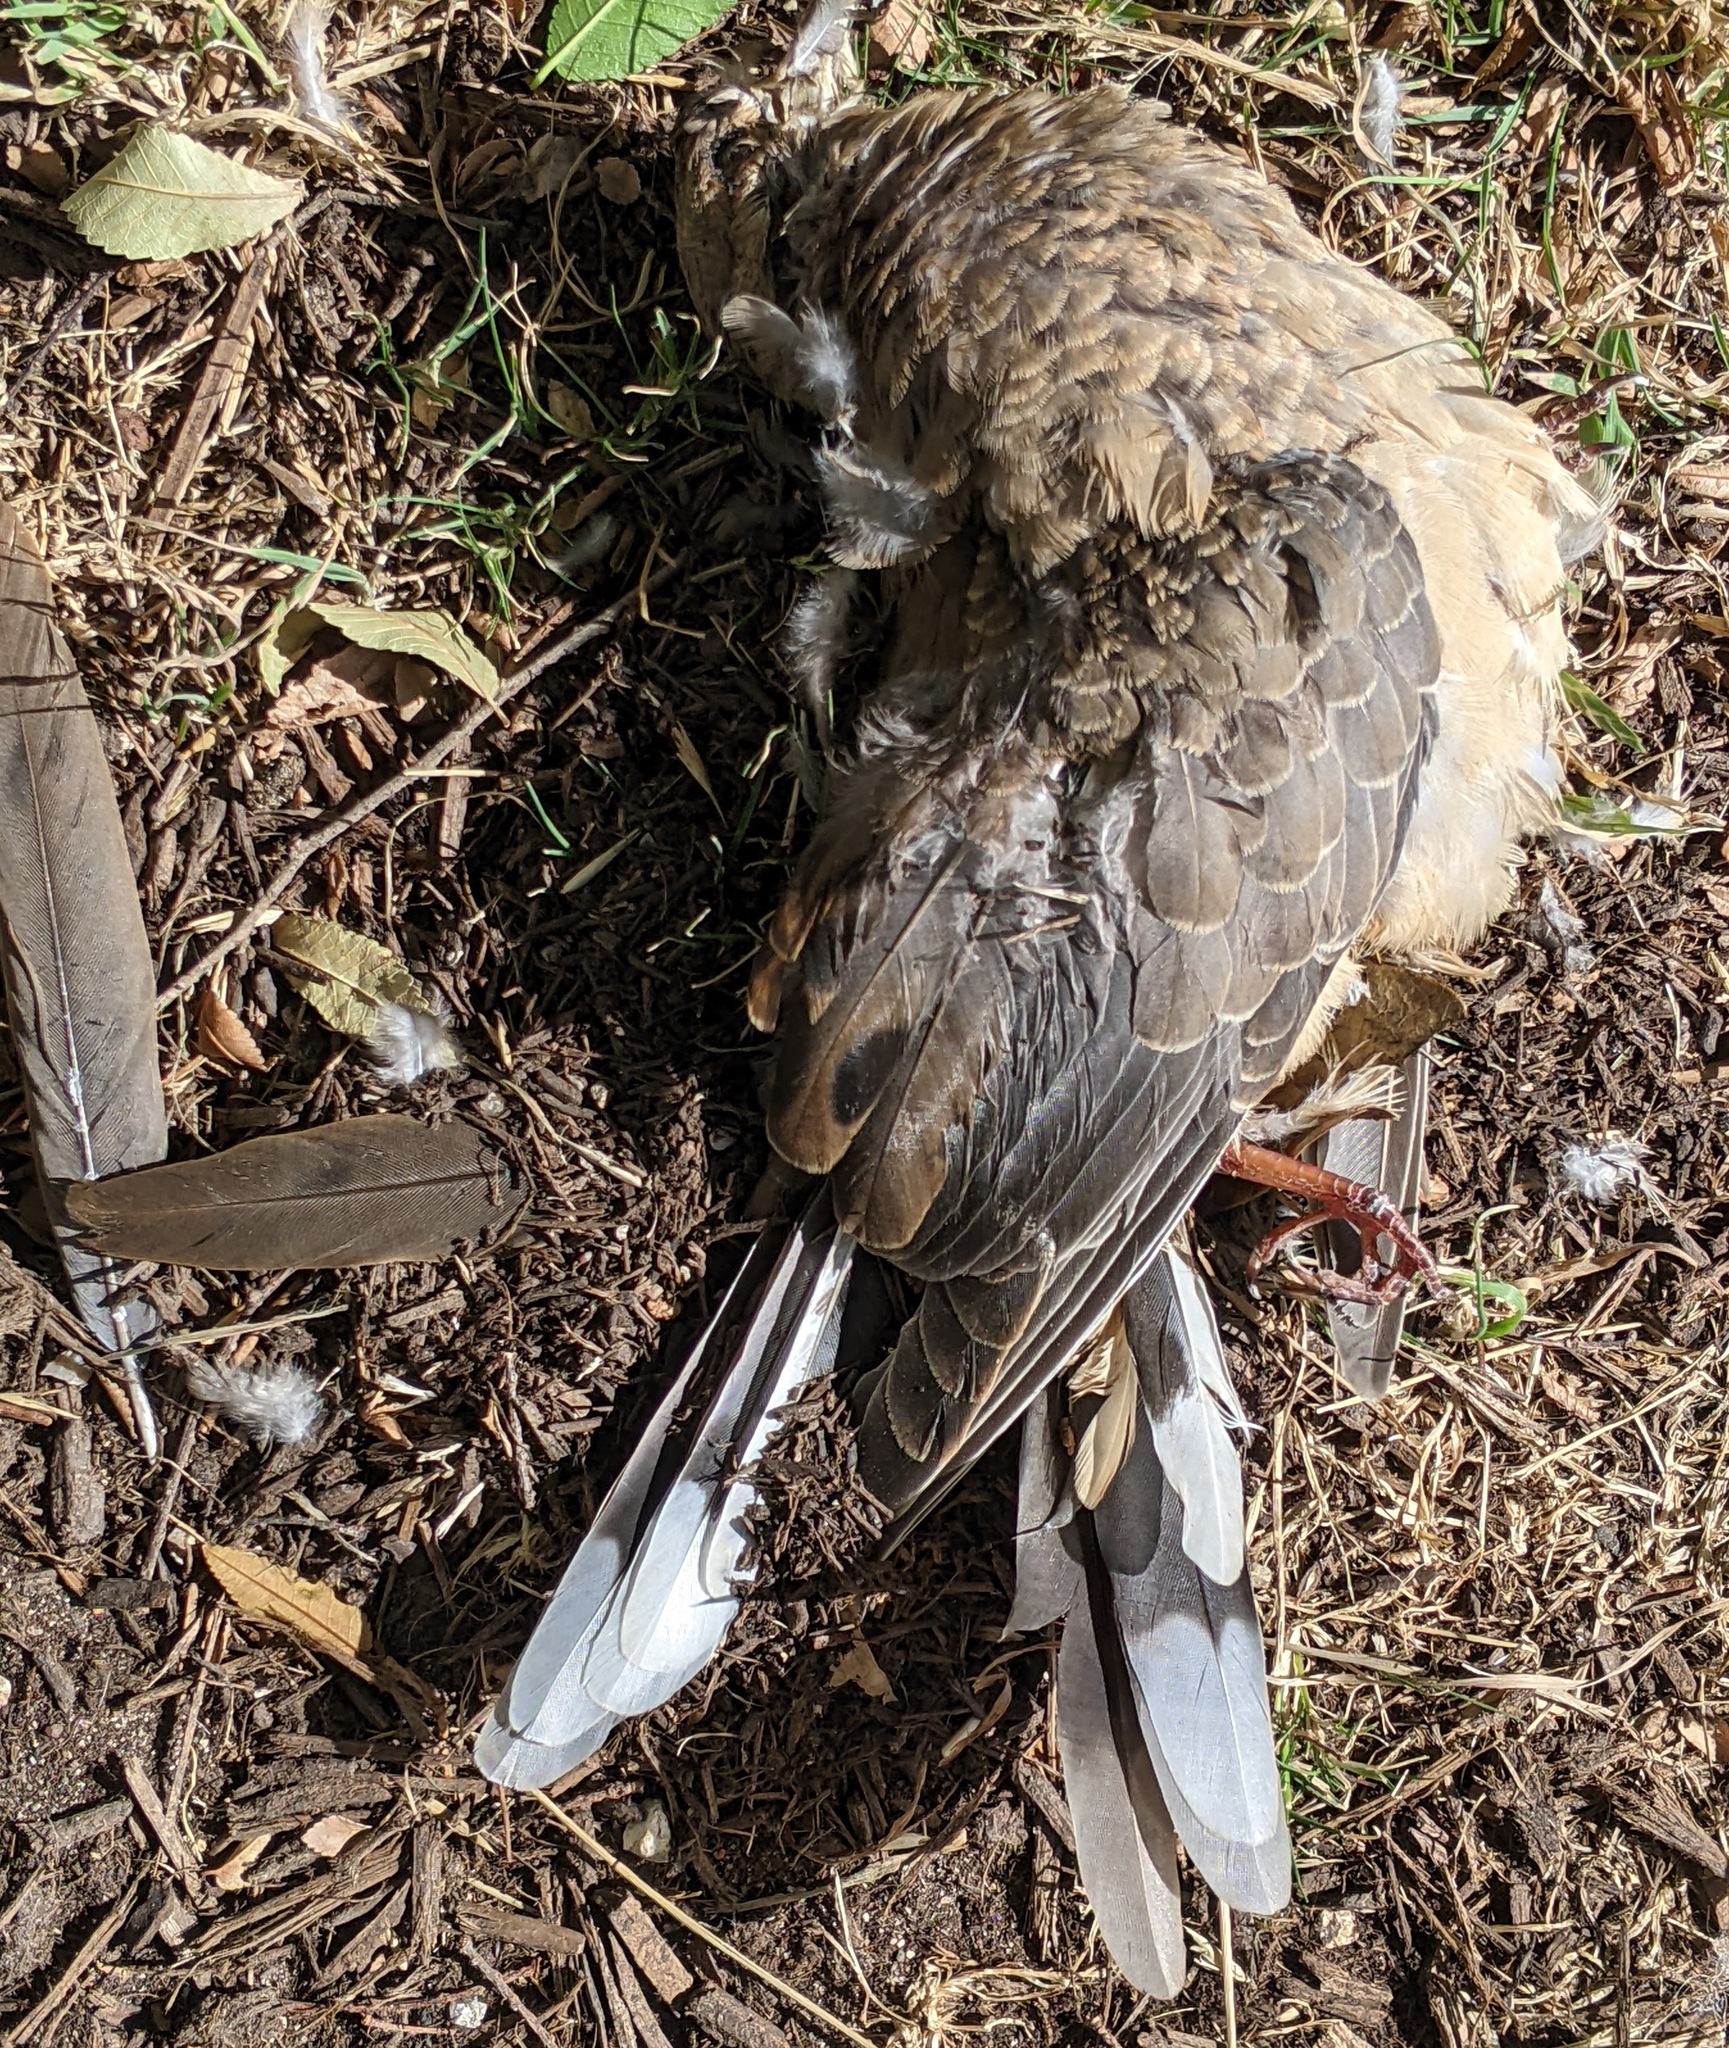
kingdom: Animalia
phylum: Chordata
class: Aves
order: Columbiformes
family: Columbidae
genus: Zenaida
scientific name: Zenaida macroura
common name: Mourning dove
